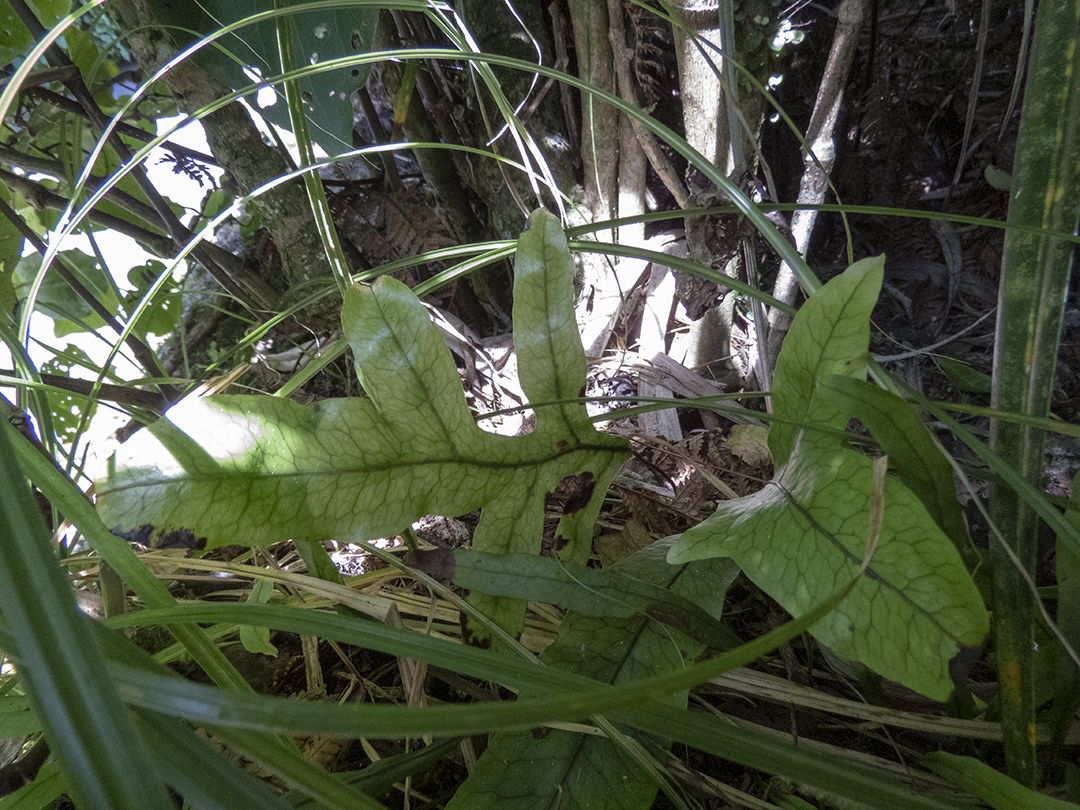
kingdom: Plantae
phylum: Tracheophyta
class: Polypodiopsida
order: Polypodiales
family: Polypodiaceae
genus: Lecanopteris
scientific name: Lecanopteris pustulata
